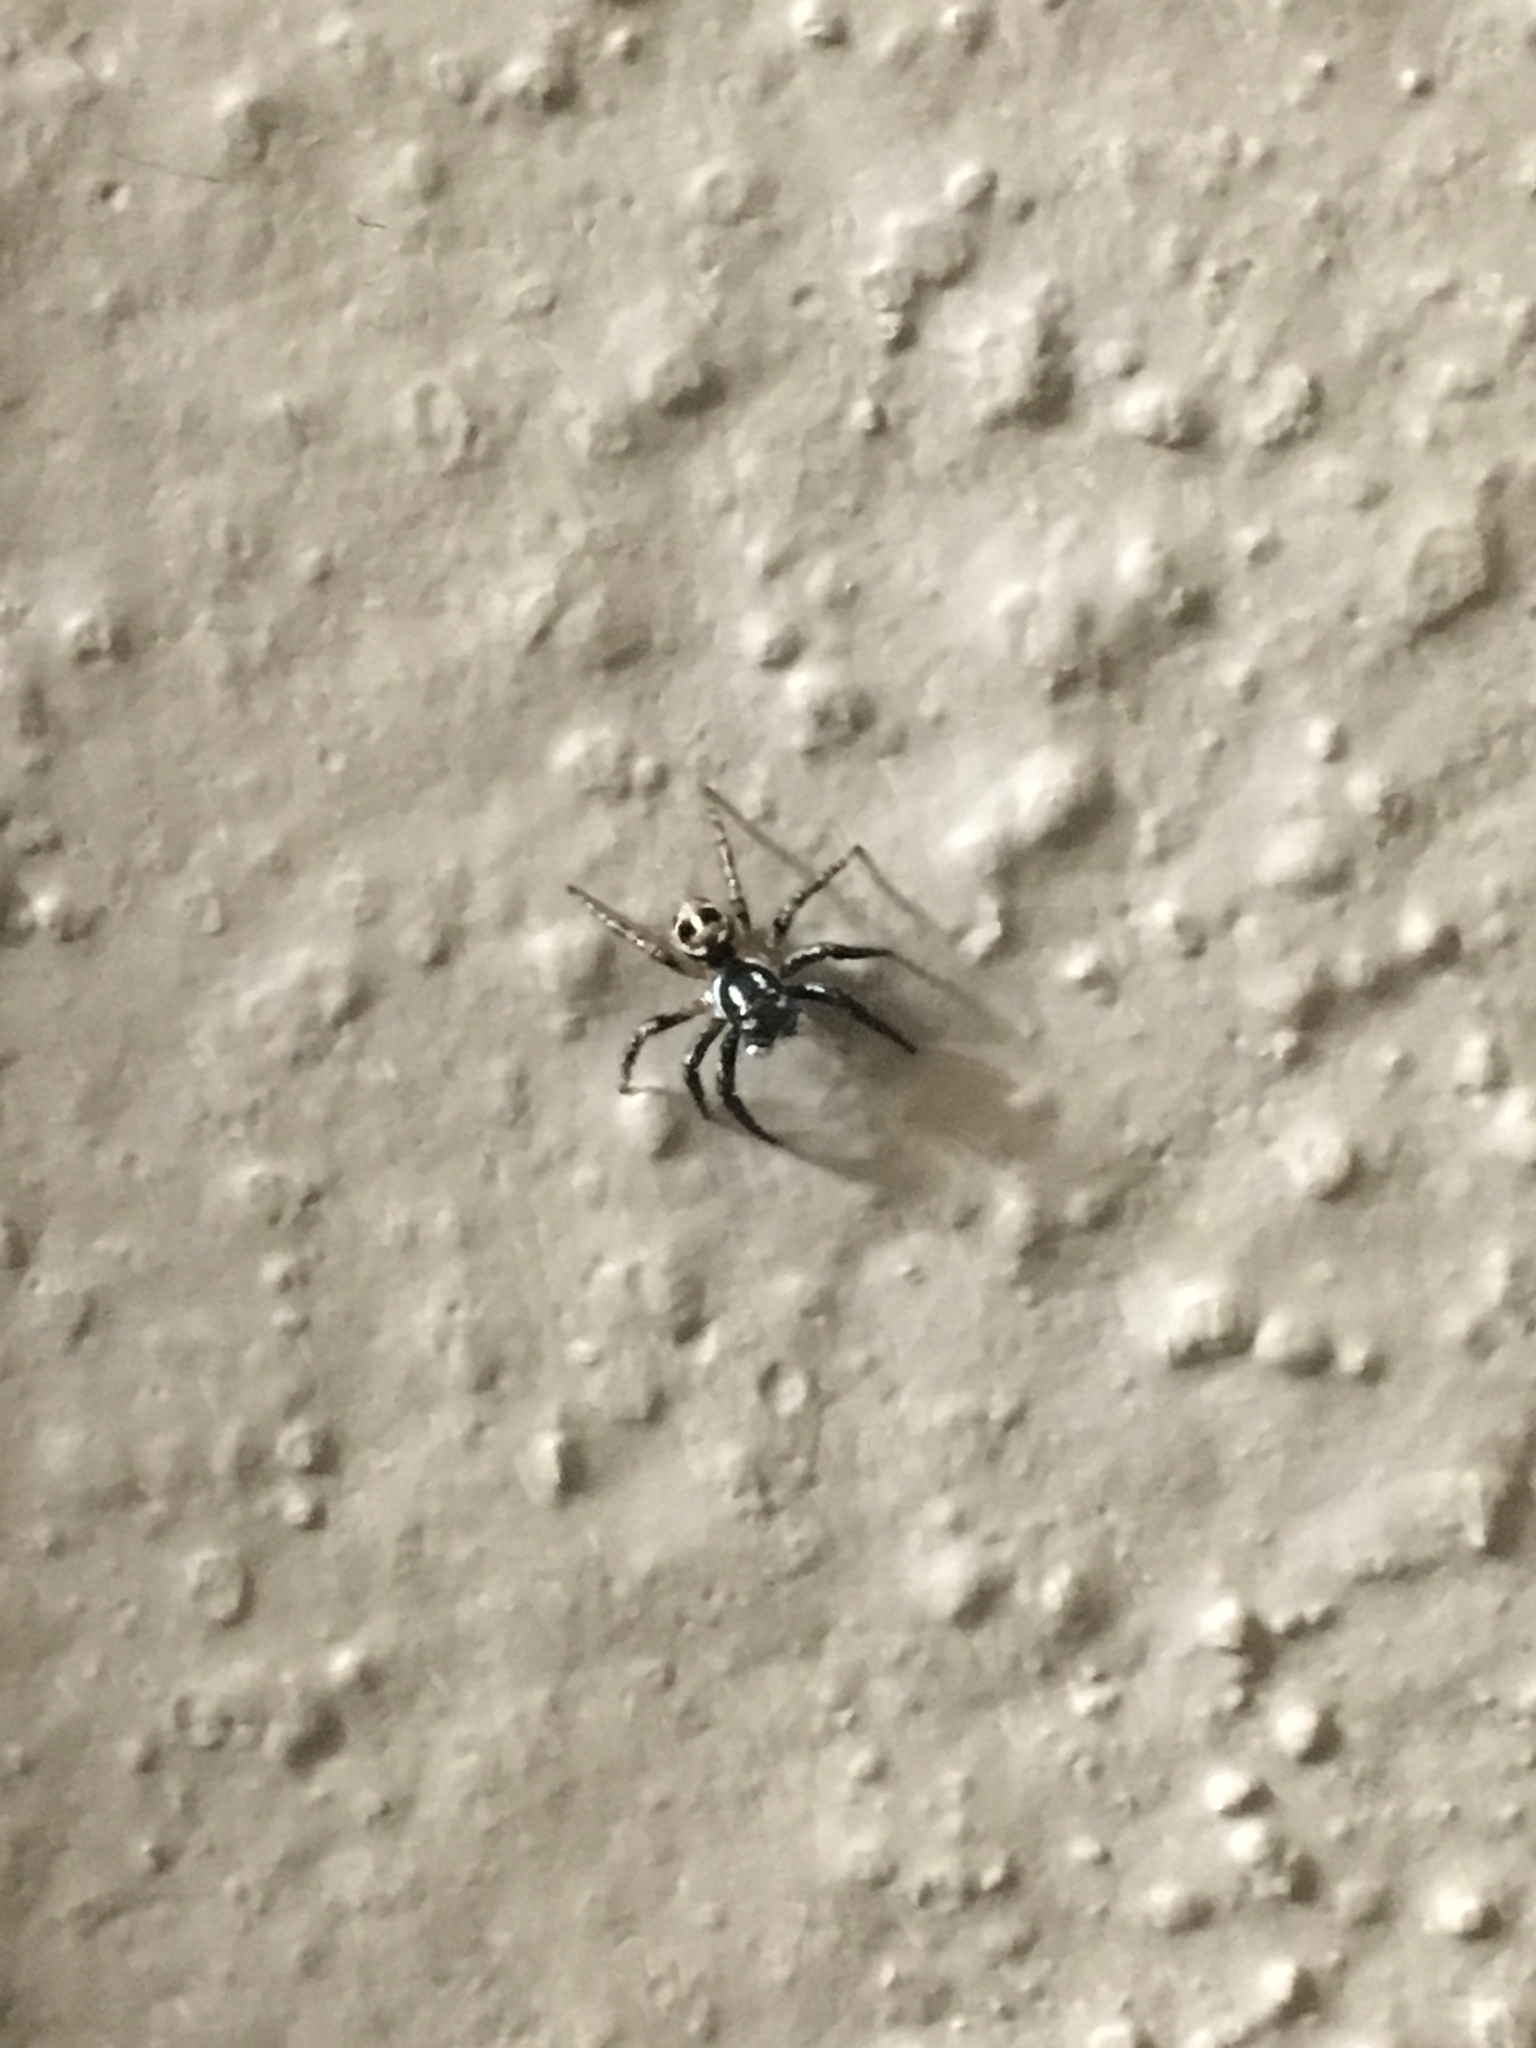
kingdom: Animalia
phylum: Arthropoda
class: Arachnida
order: Araneae
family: Salticidae
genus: Anasaitis
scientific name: Anasaitis canosa
